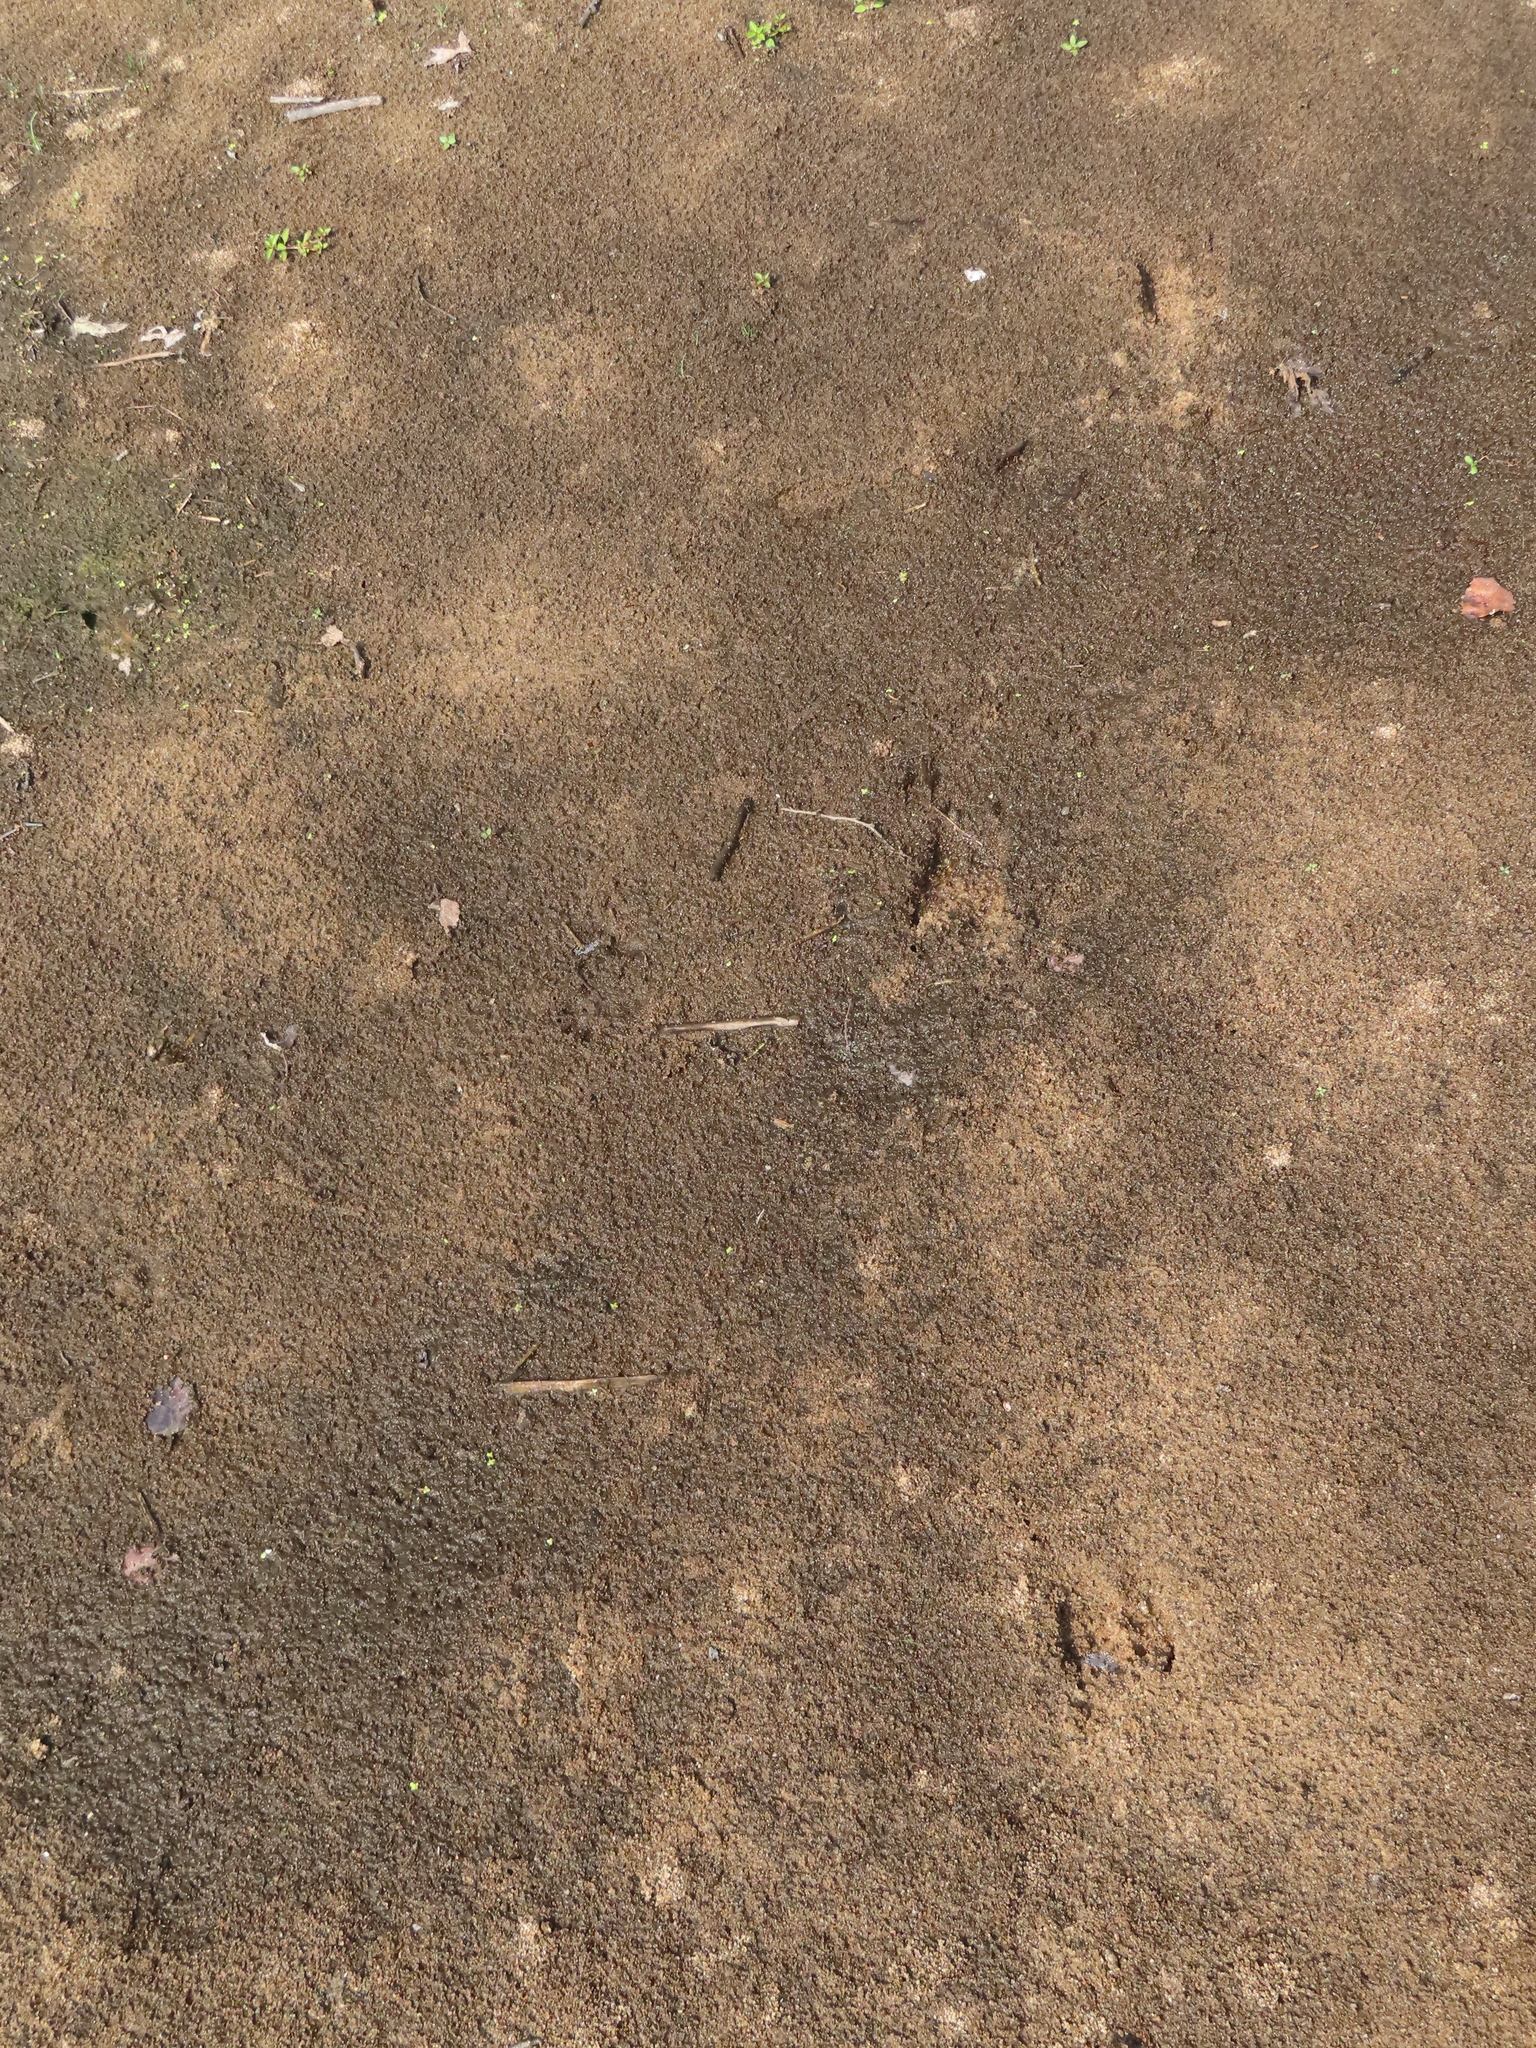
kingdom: Animalia
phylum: Chordata
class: Mammalia
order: Artiodactyla
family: Cervidae
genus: Odocoileus
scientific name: Odocoileus virginianus
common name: White-tailed deer
